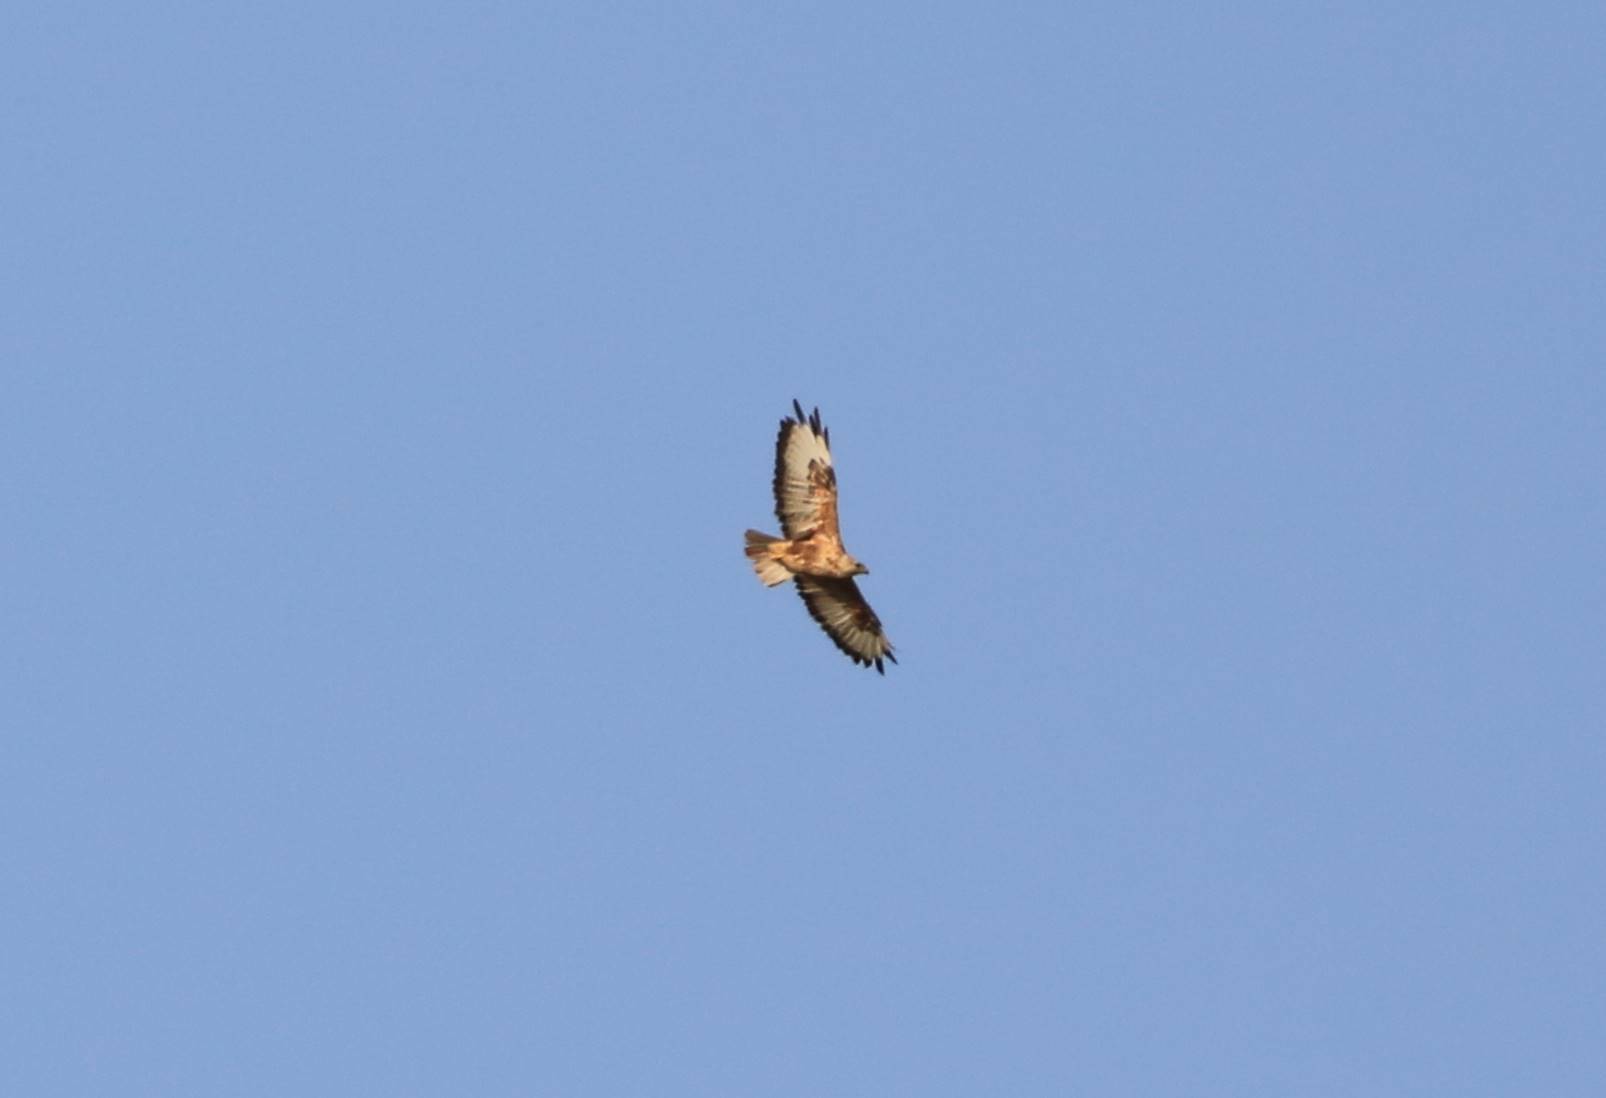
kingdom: Animalia
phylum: Chordata
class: Aves
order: Accipitriformes
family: Accipitridae
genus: Buteo
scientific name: Buteo rufinus
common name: Long-legged buzzard
